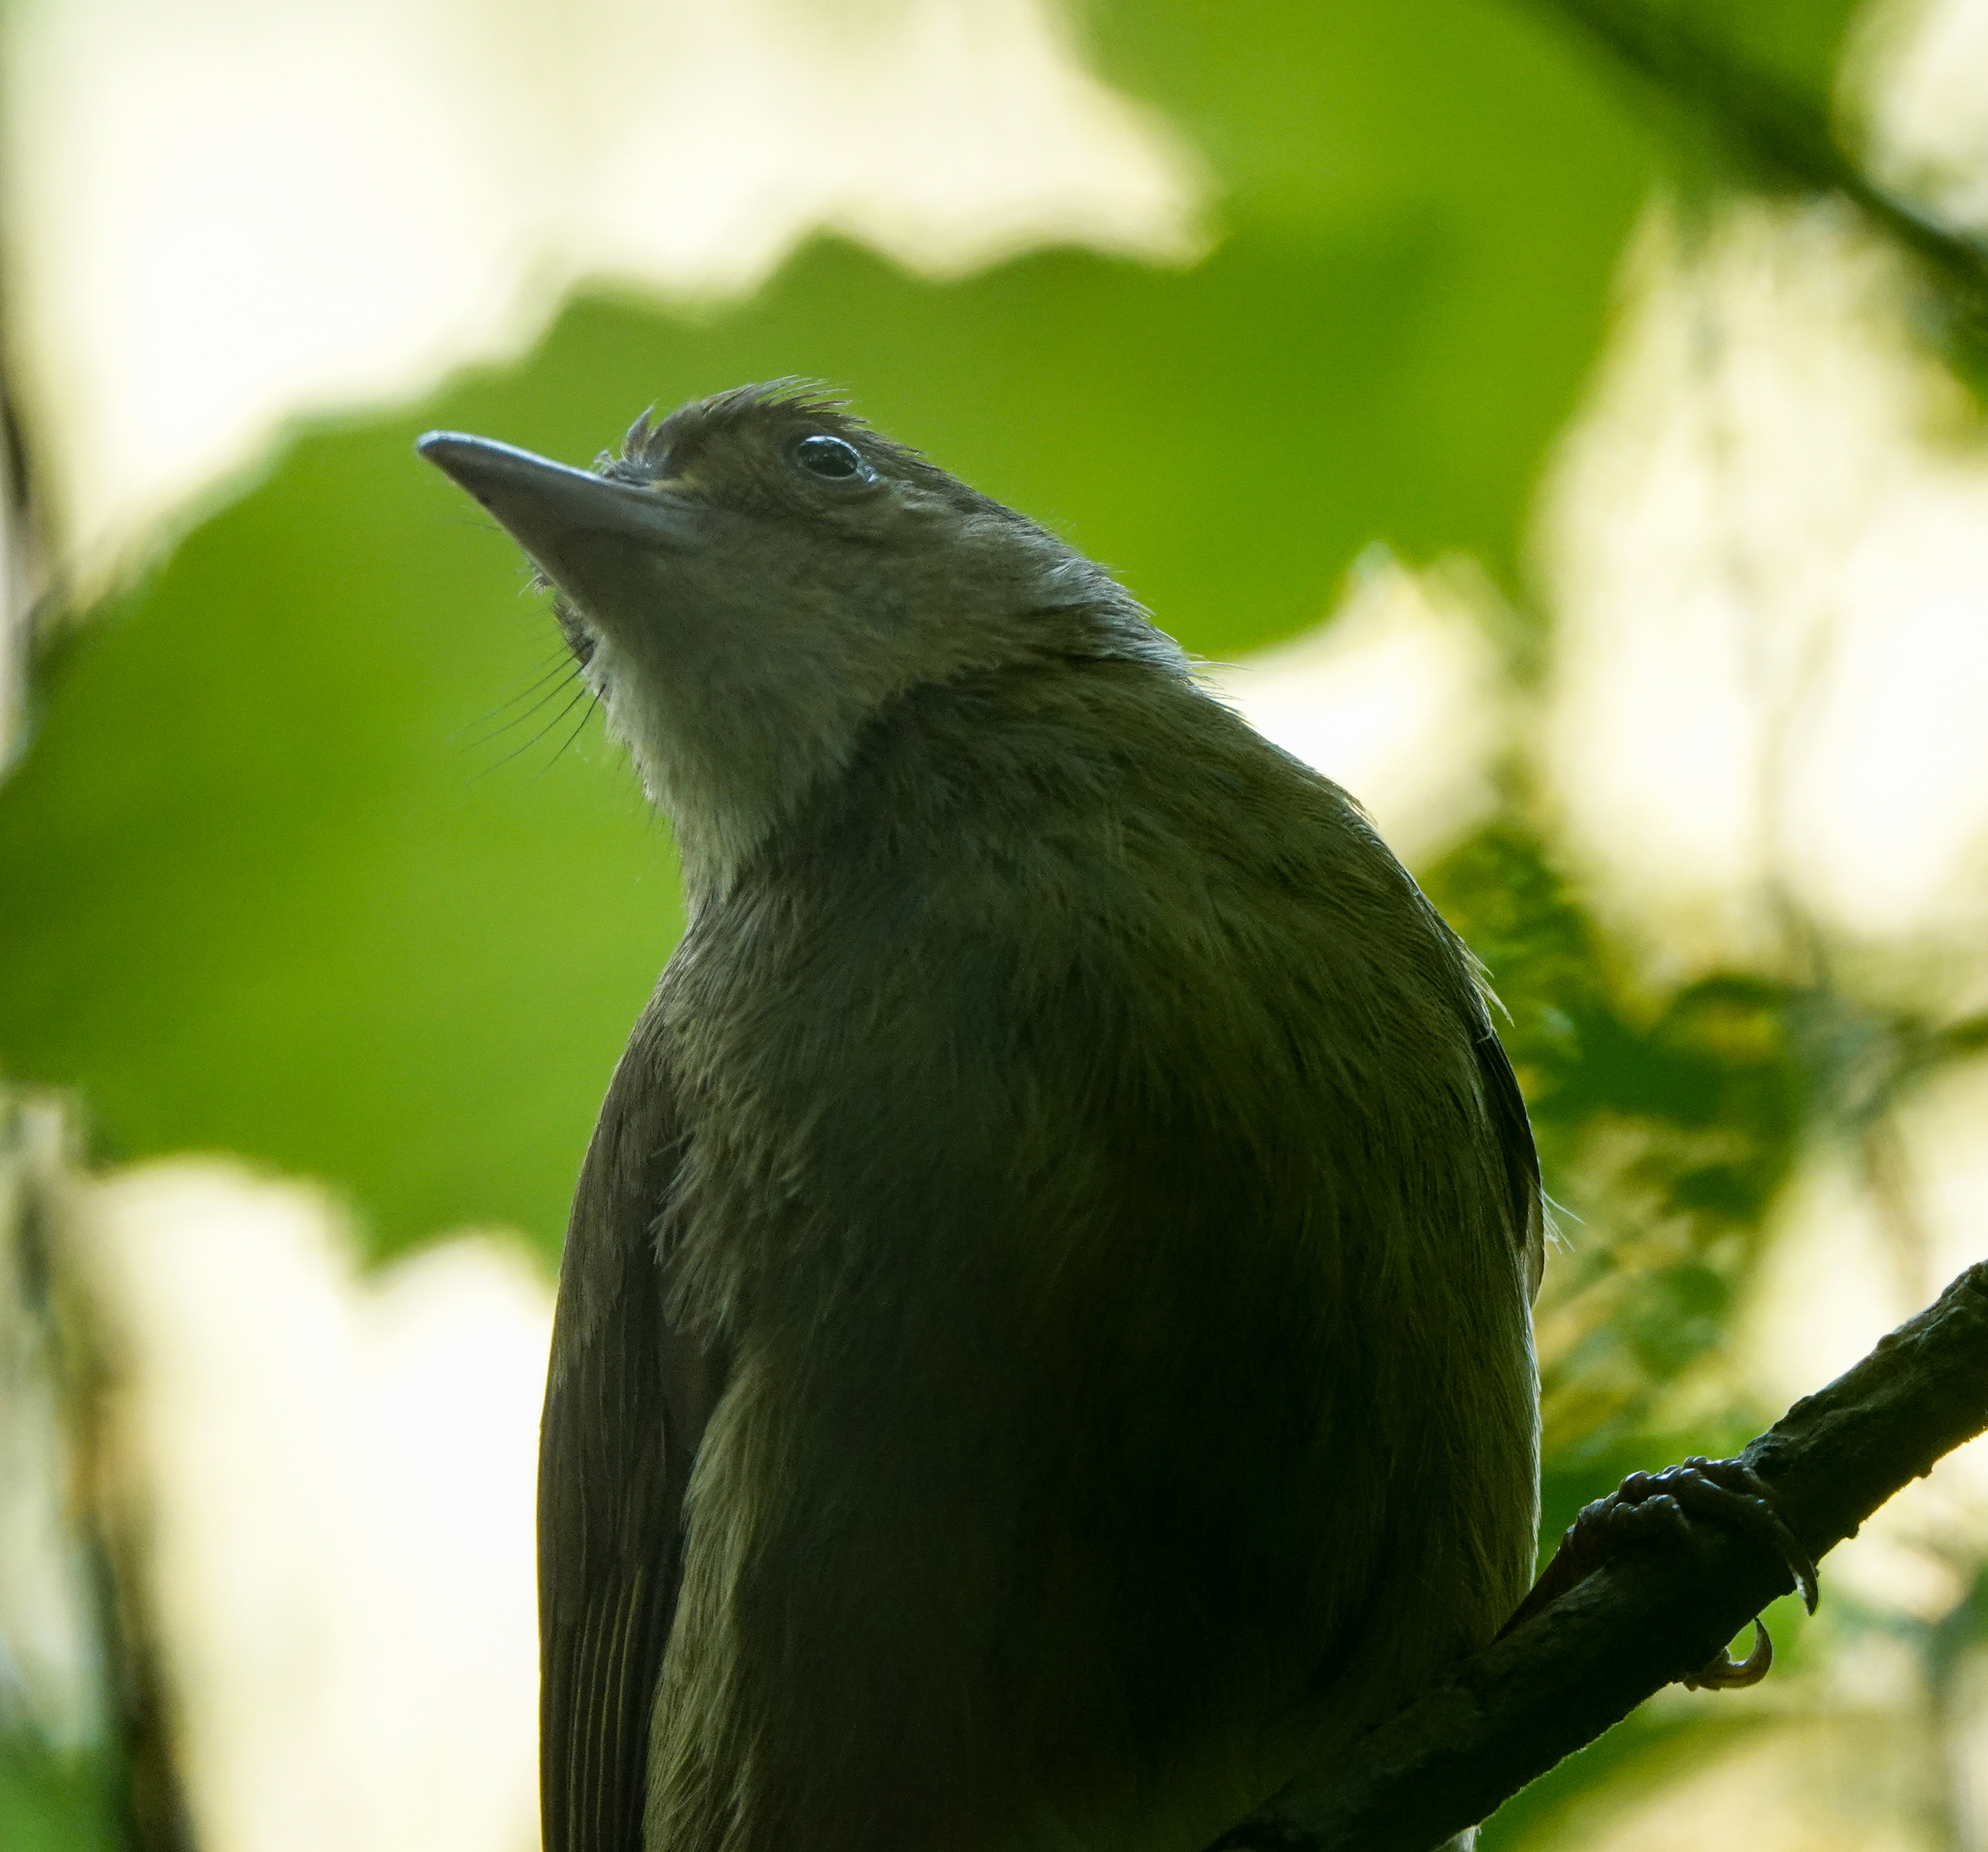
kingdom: Animalia
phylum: Chordata
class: Aves
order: Passeriformes
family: Pycnonotidae
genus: Iole
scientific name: Iole virescens
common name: Olive bulbul
